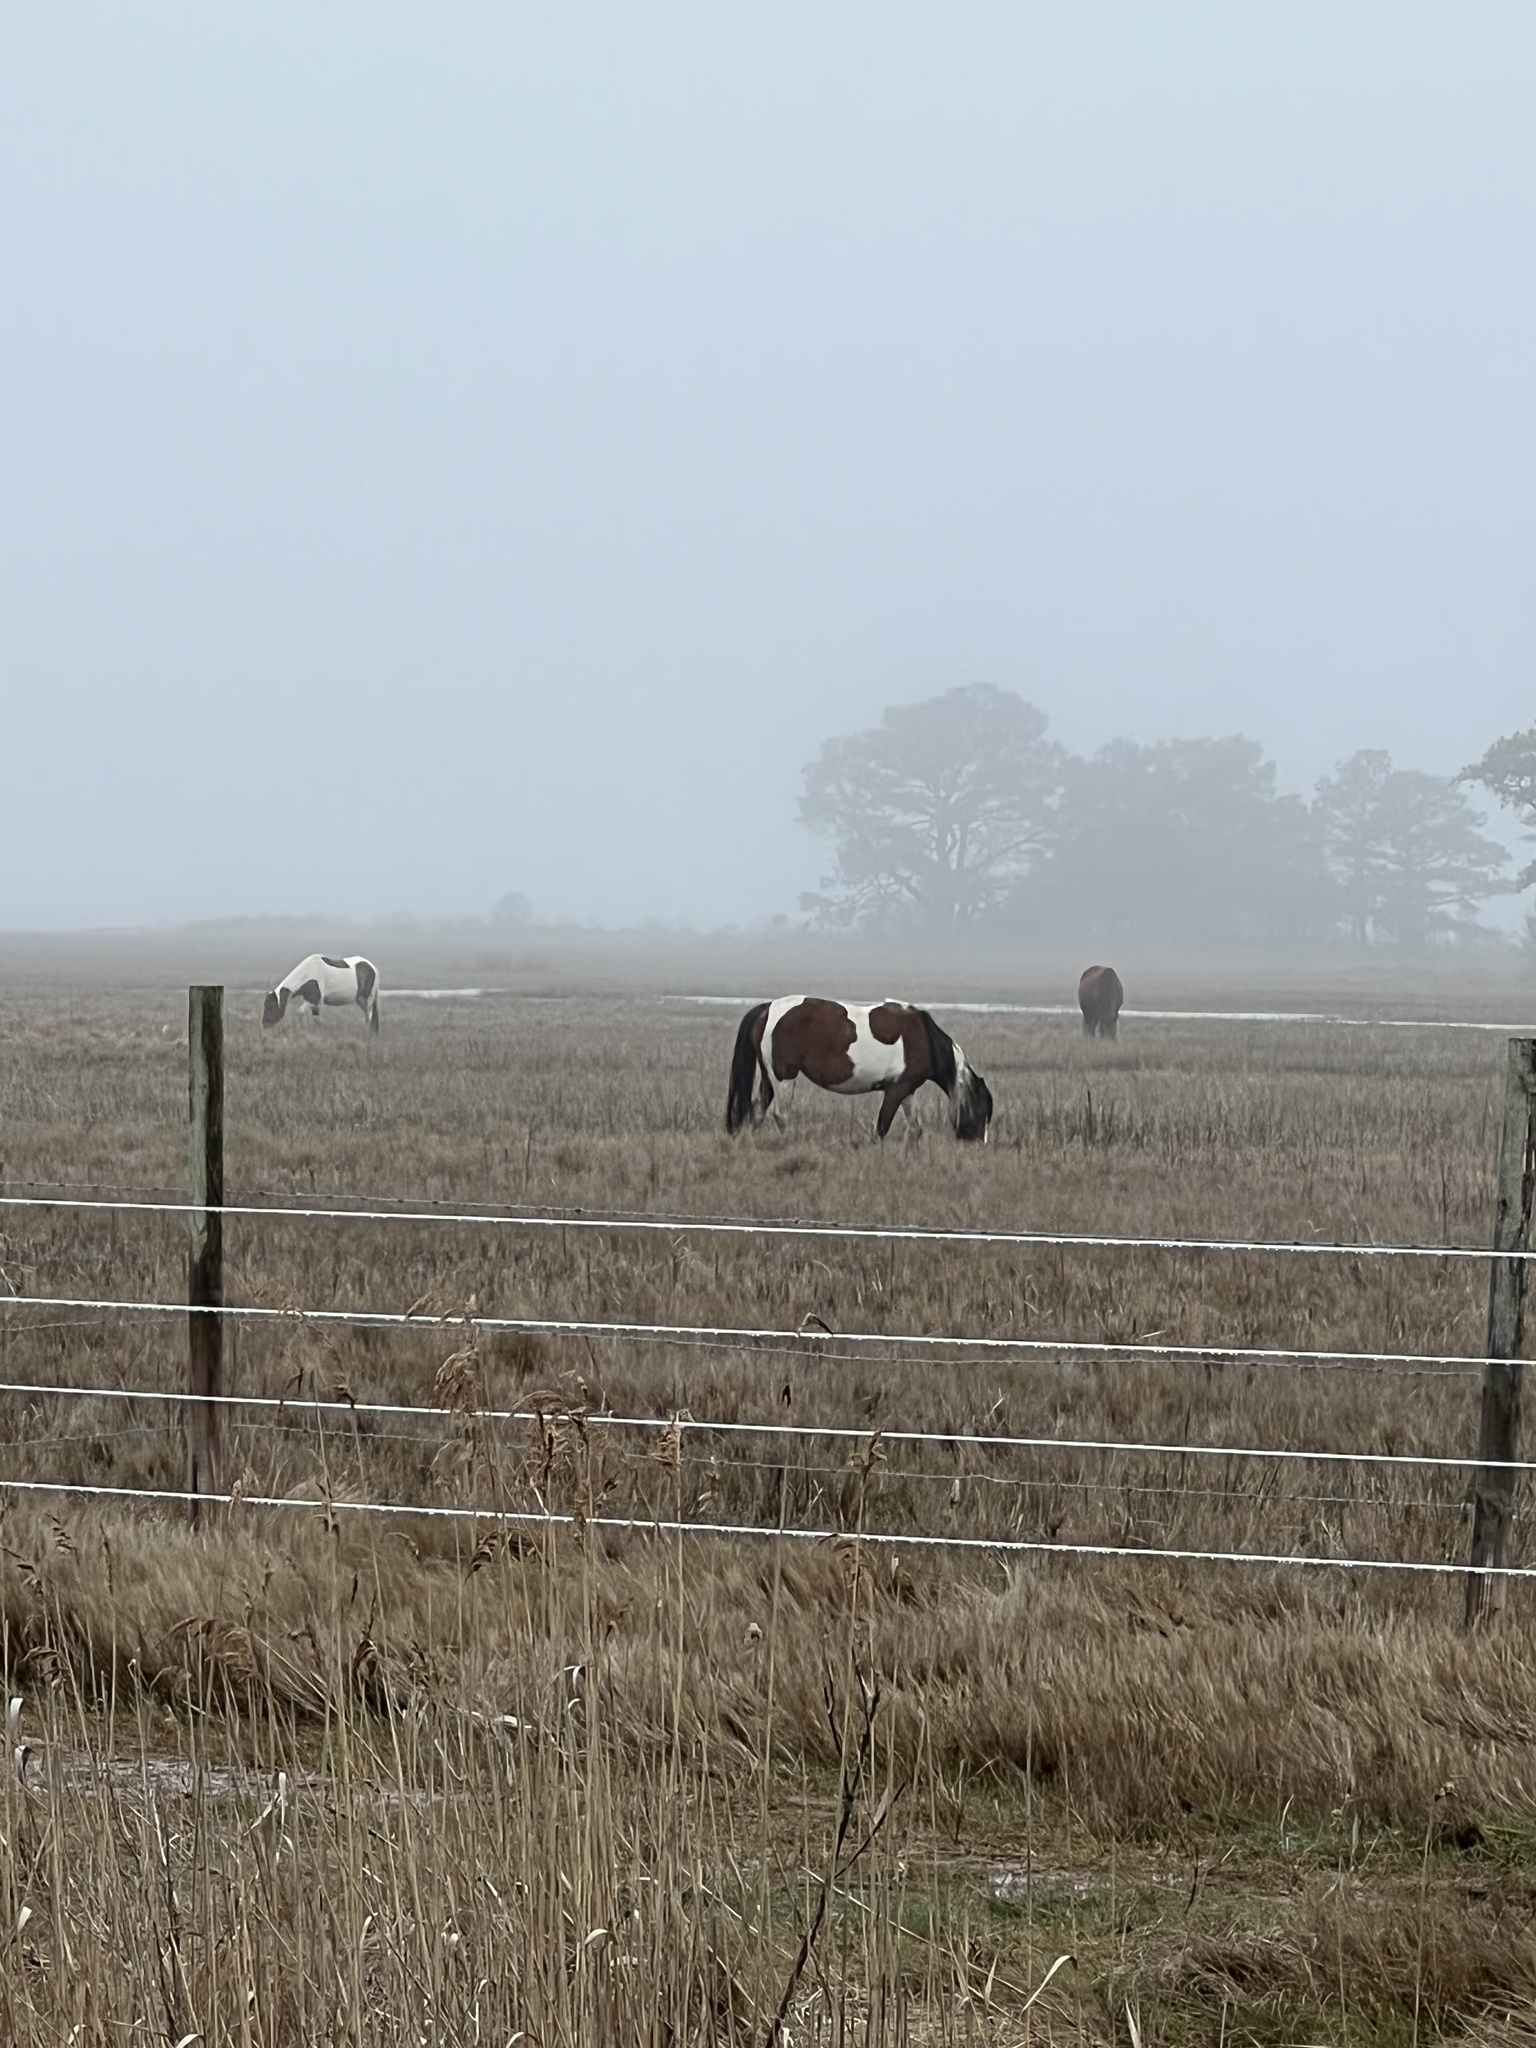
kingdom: Animalia
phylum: Chordata
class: Mammalia
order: Perissodactyla
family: Equidae
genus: Equus
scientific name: Equus caballus
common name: Horse
